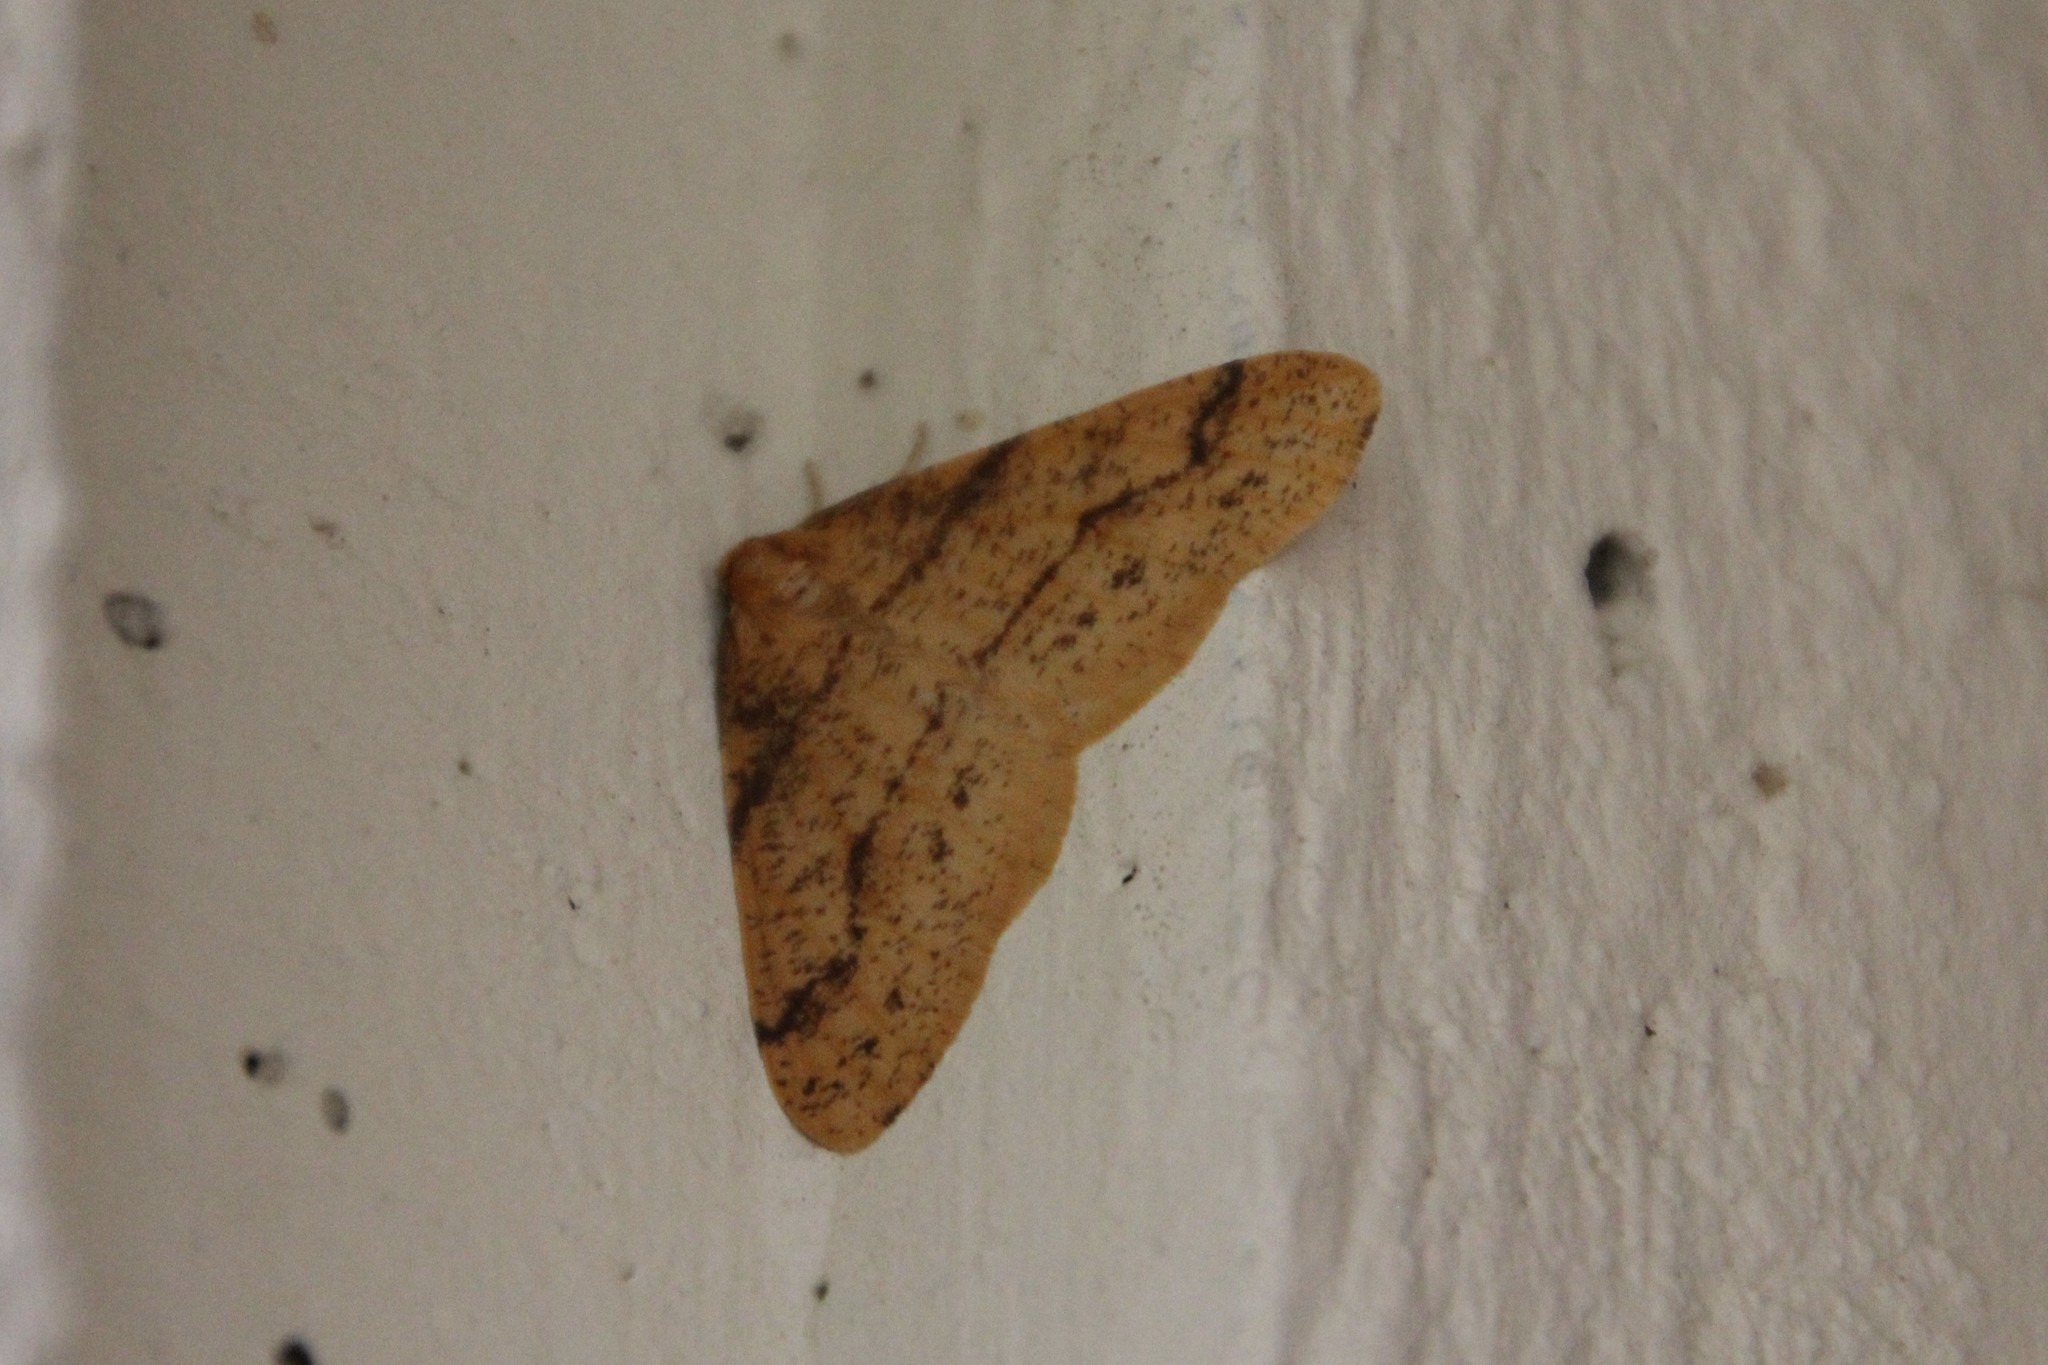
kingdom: Animalia
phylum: Arthropoda
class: Insecta
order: Lepidoptera
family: Geometridae
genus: Agriopis
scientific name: Agriopis aurantiaria
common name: Scarce umber
